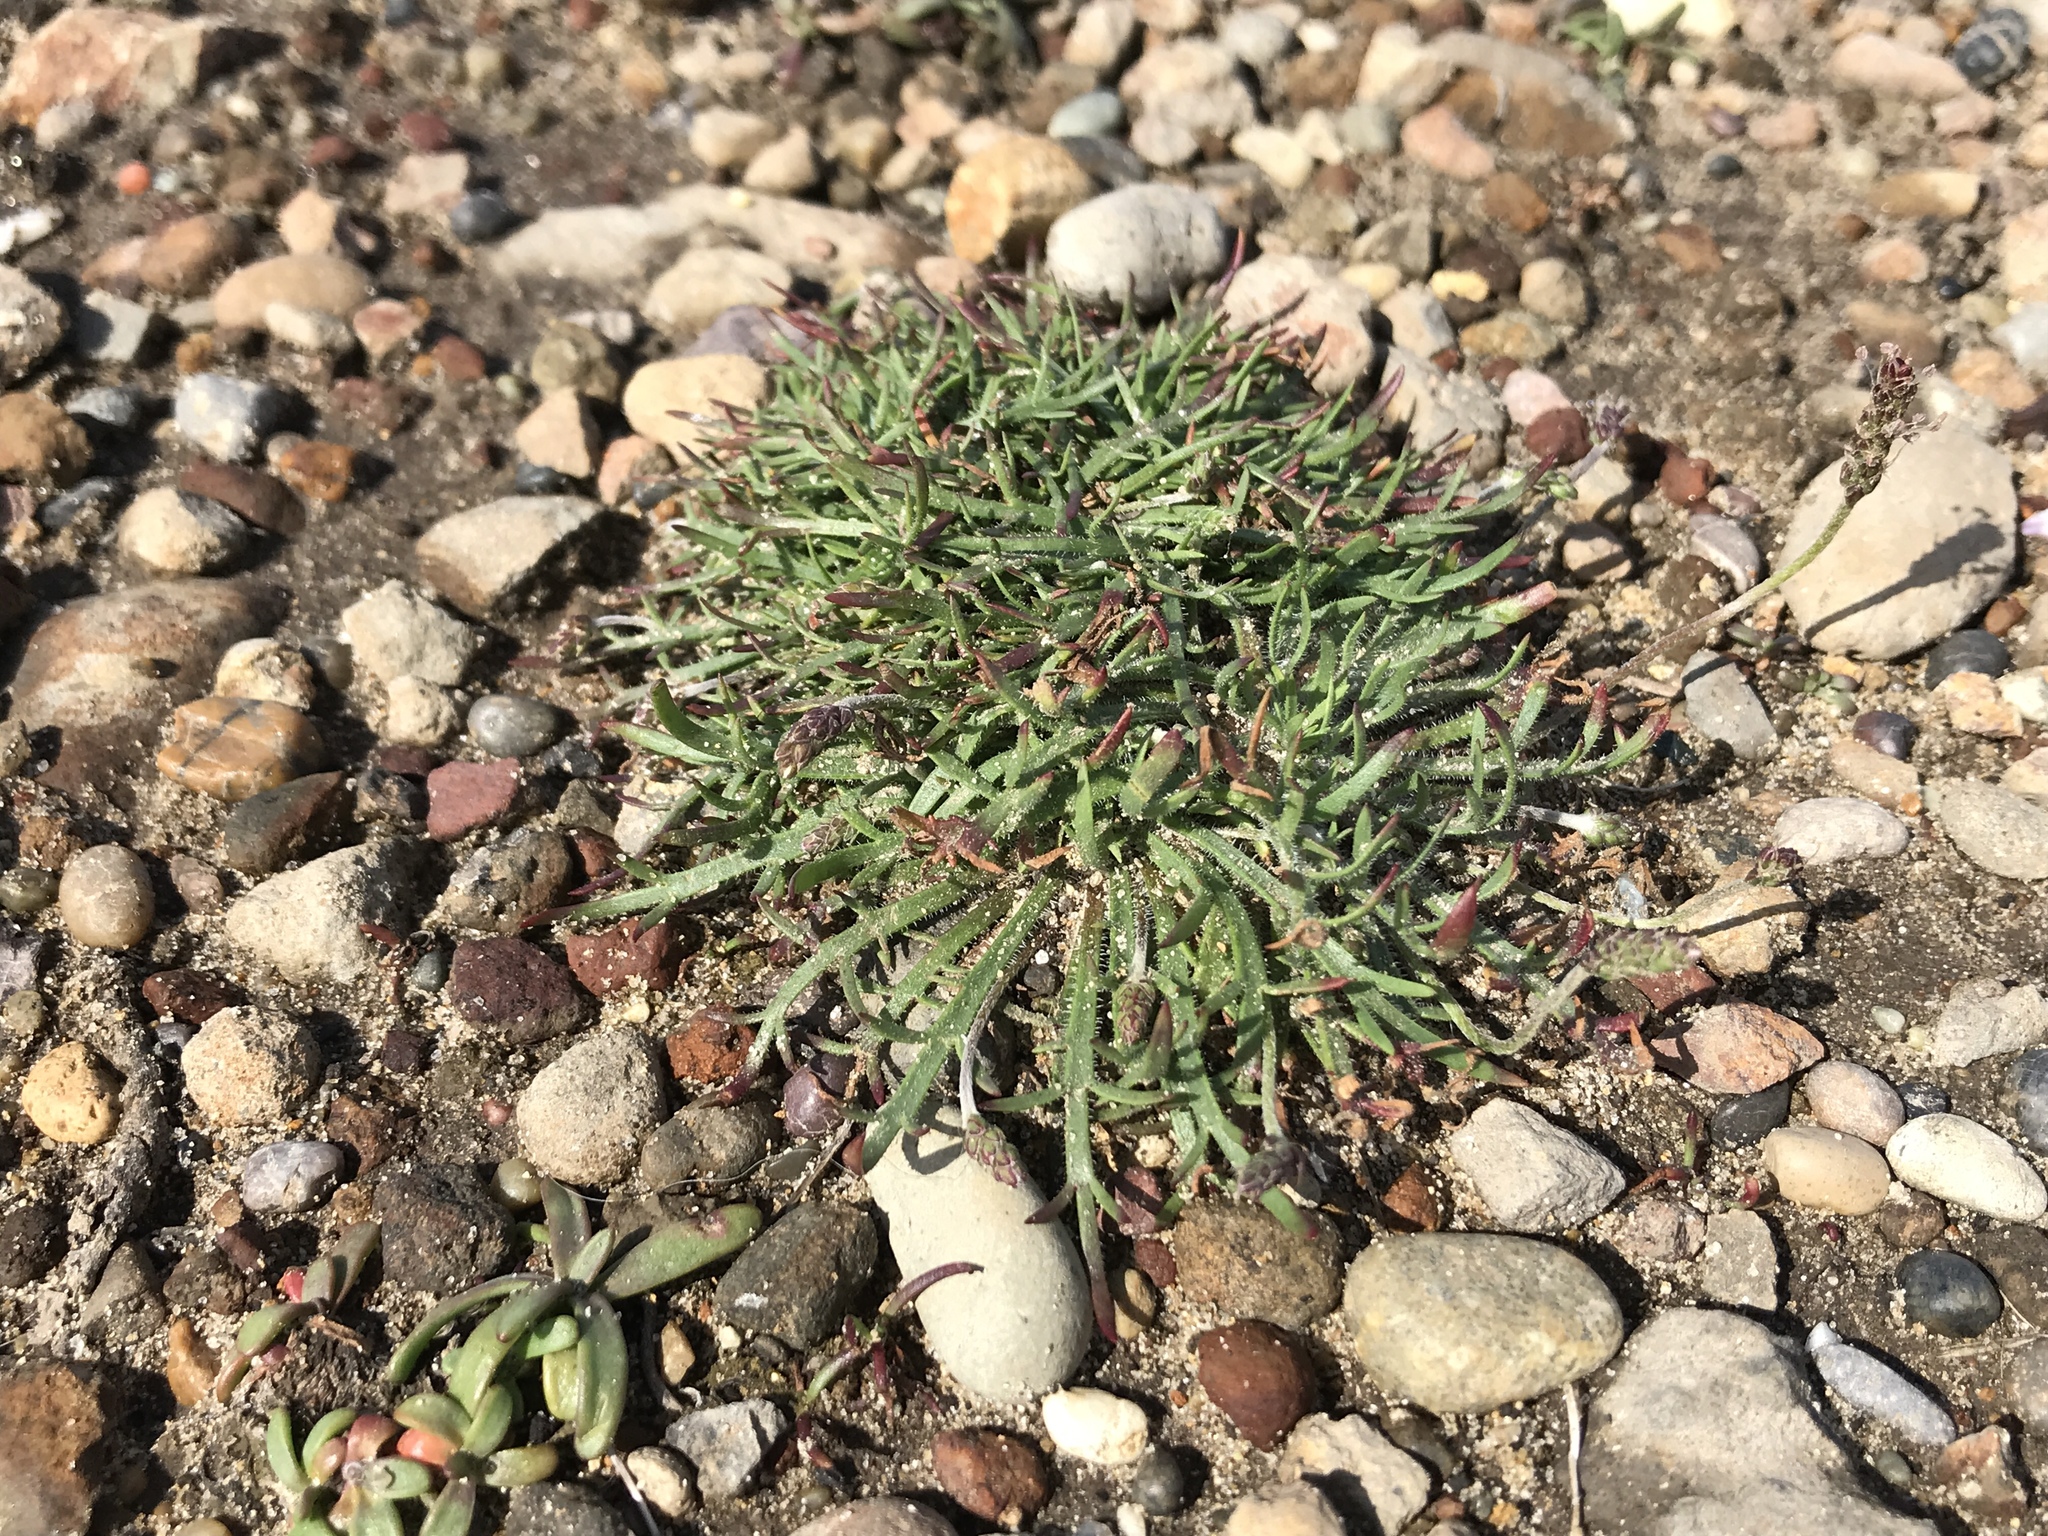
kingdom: Plantae
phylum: Tracheophyta
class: Magnoliopsida
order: Lamiales
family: Plantaginaceae
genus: Plantago
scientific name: Plantago coronopus
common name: Buck's-horn plantain
